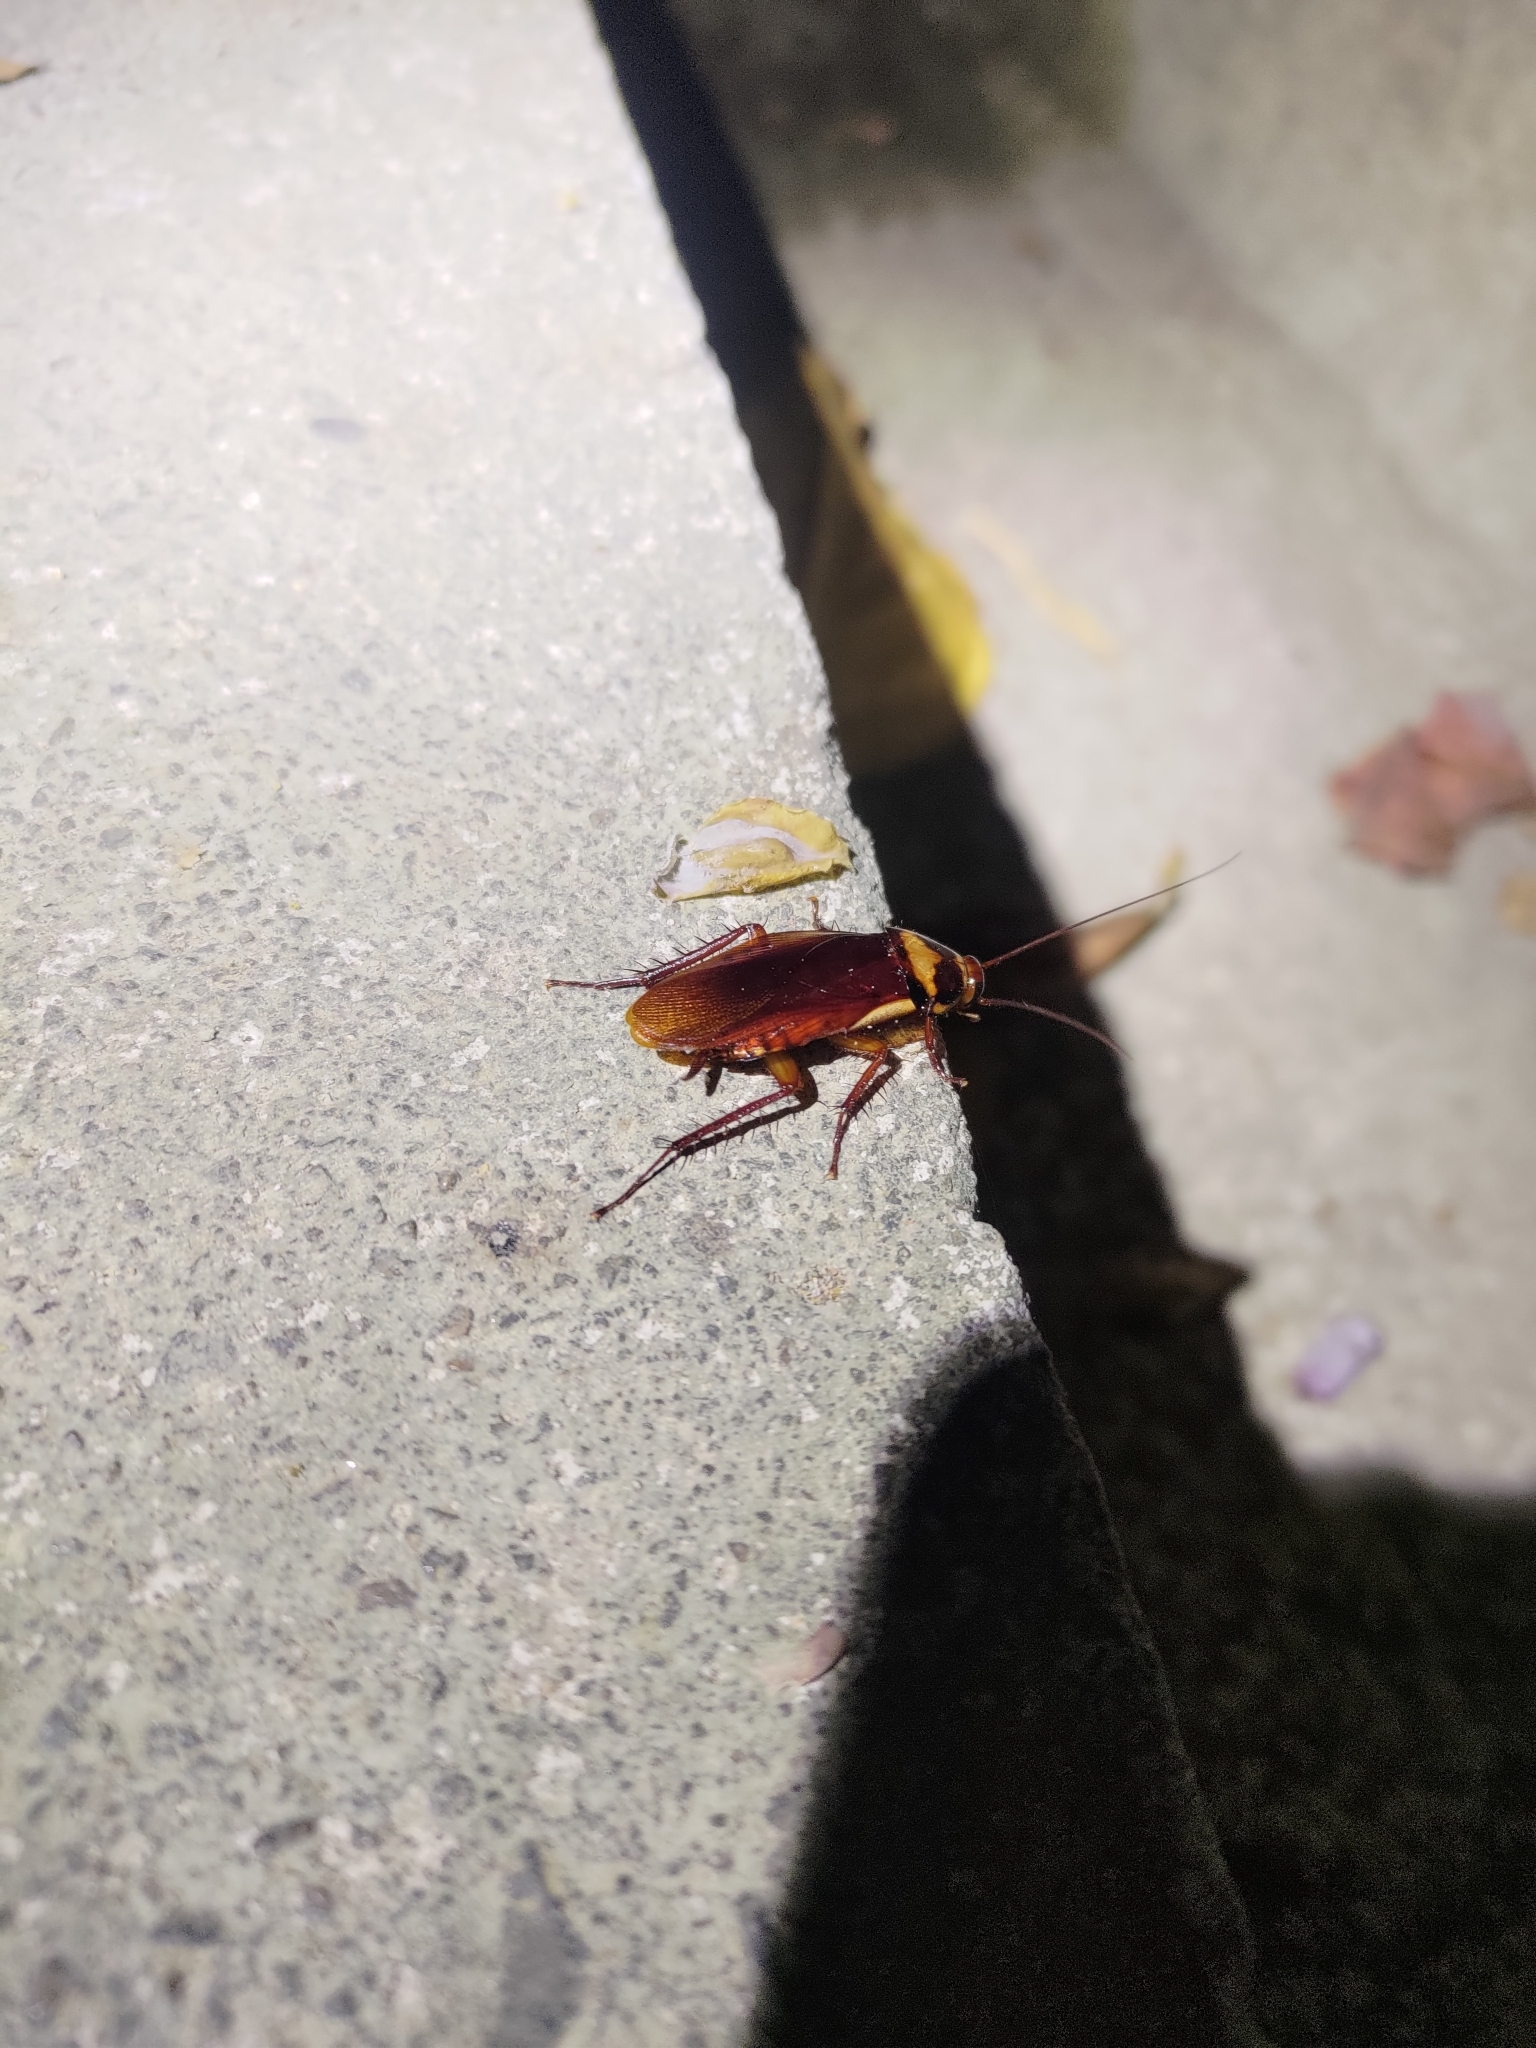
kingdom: Animalia
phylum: Arthropoda
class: Insecta
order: Blattodea
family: Blattidae
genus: Periplaneta
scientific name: Periplaneta australasiae
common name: Australian cockroach
